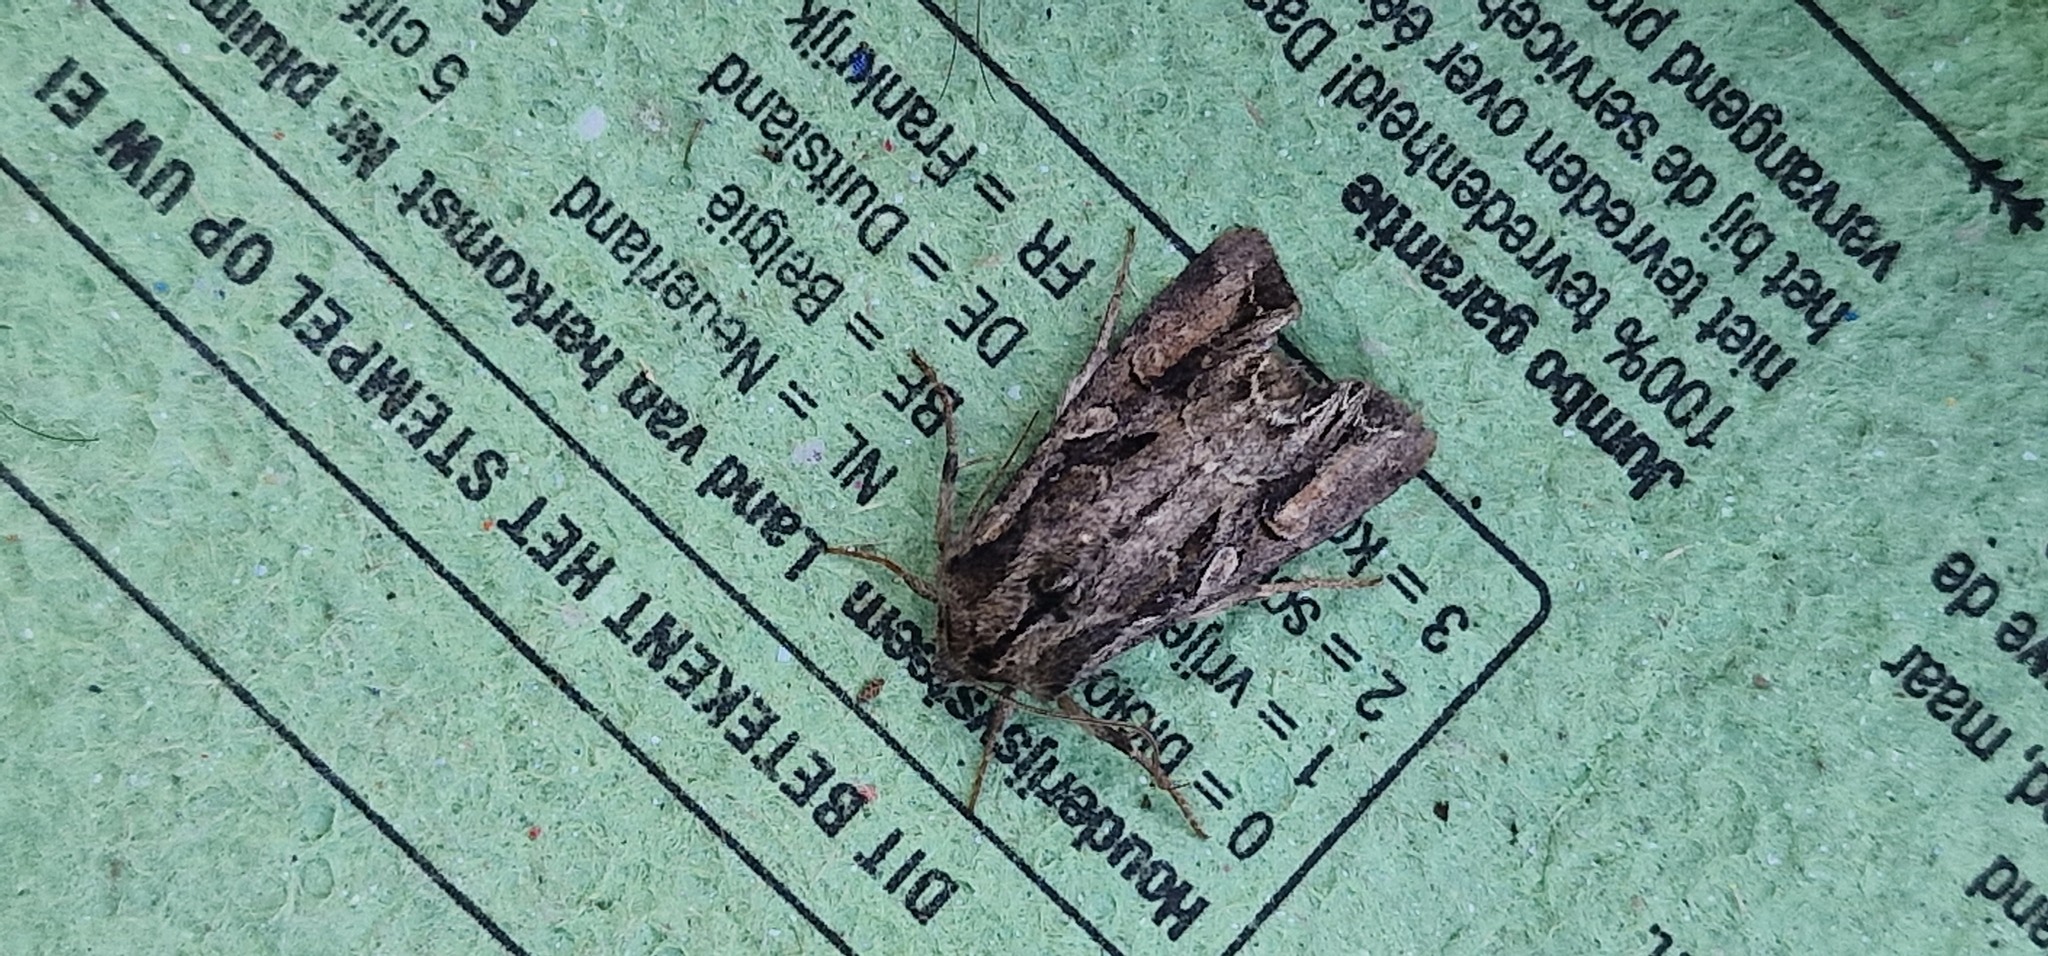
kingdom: Animalia
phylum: Arthropoda
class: Insecta
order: Lepidoptera
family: Noctuidae
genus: Lacanobia
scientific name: Lacanobia suasa
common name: Dog's tooth
